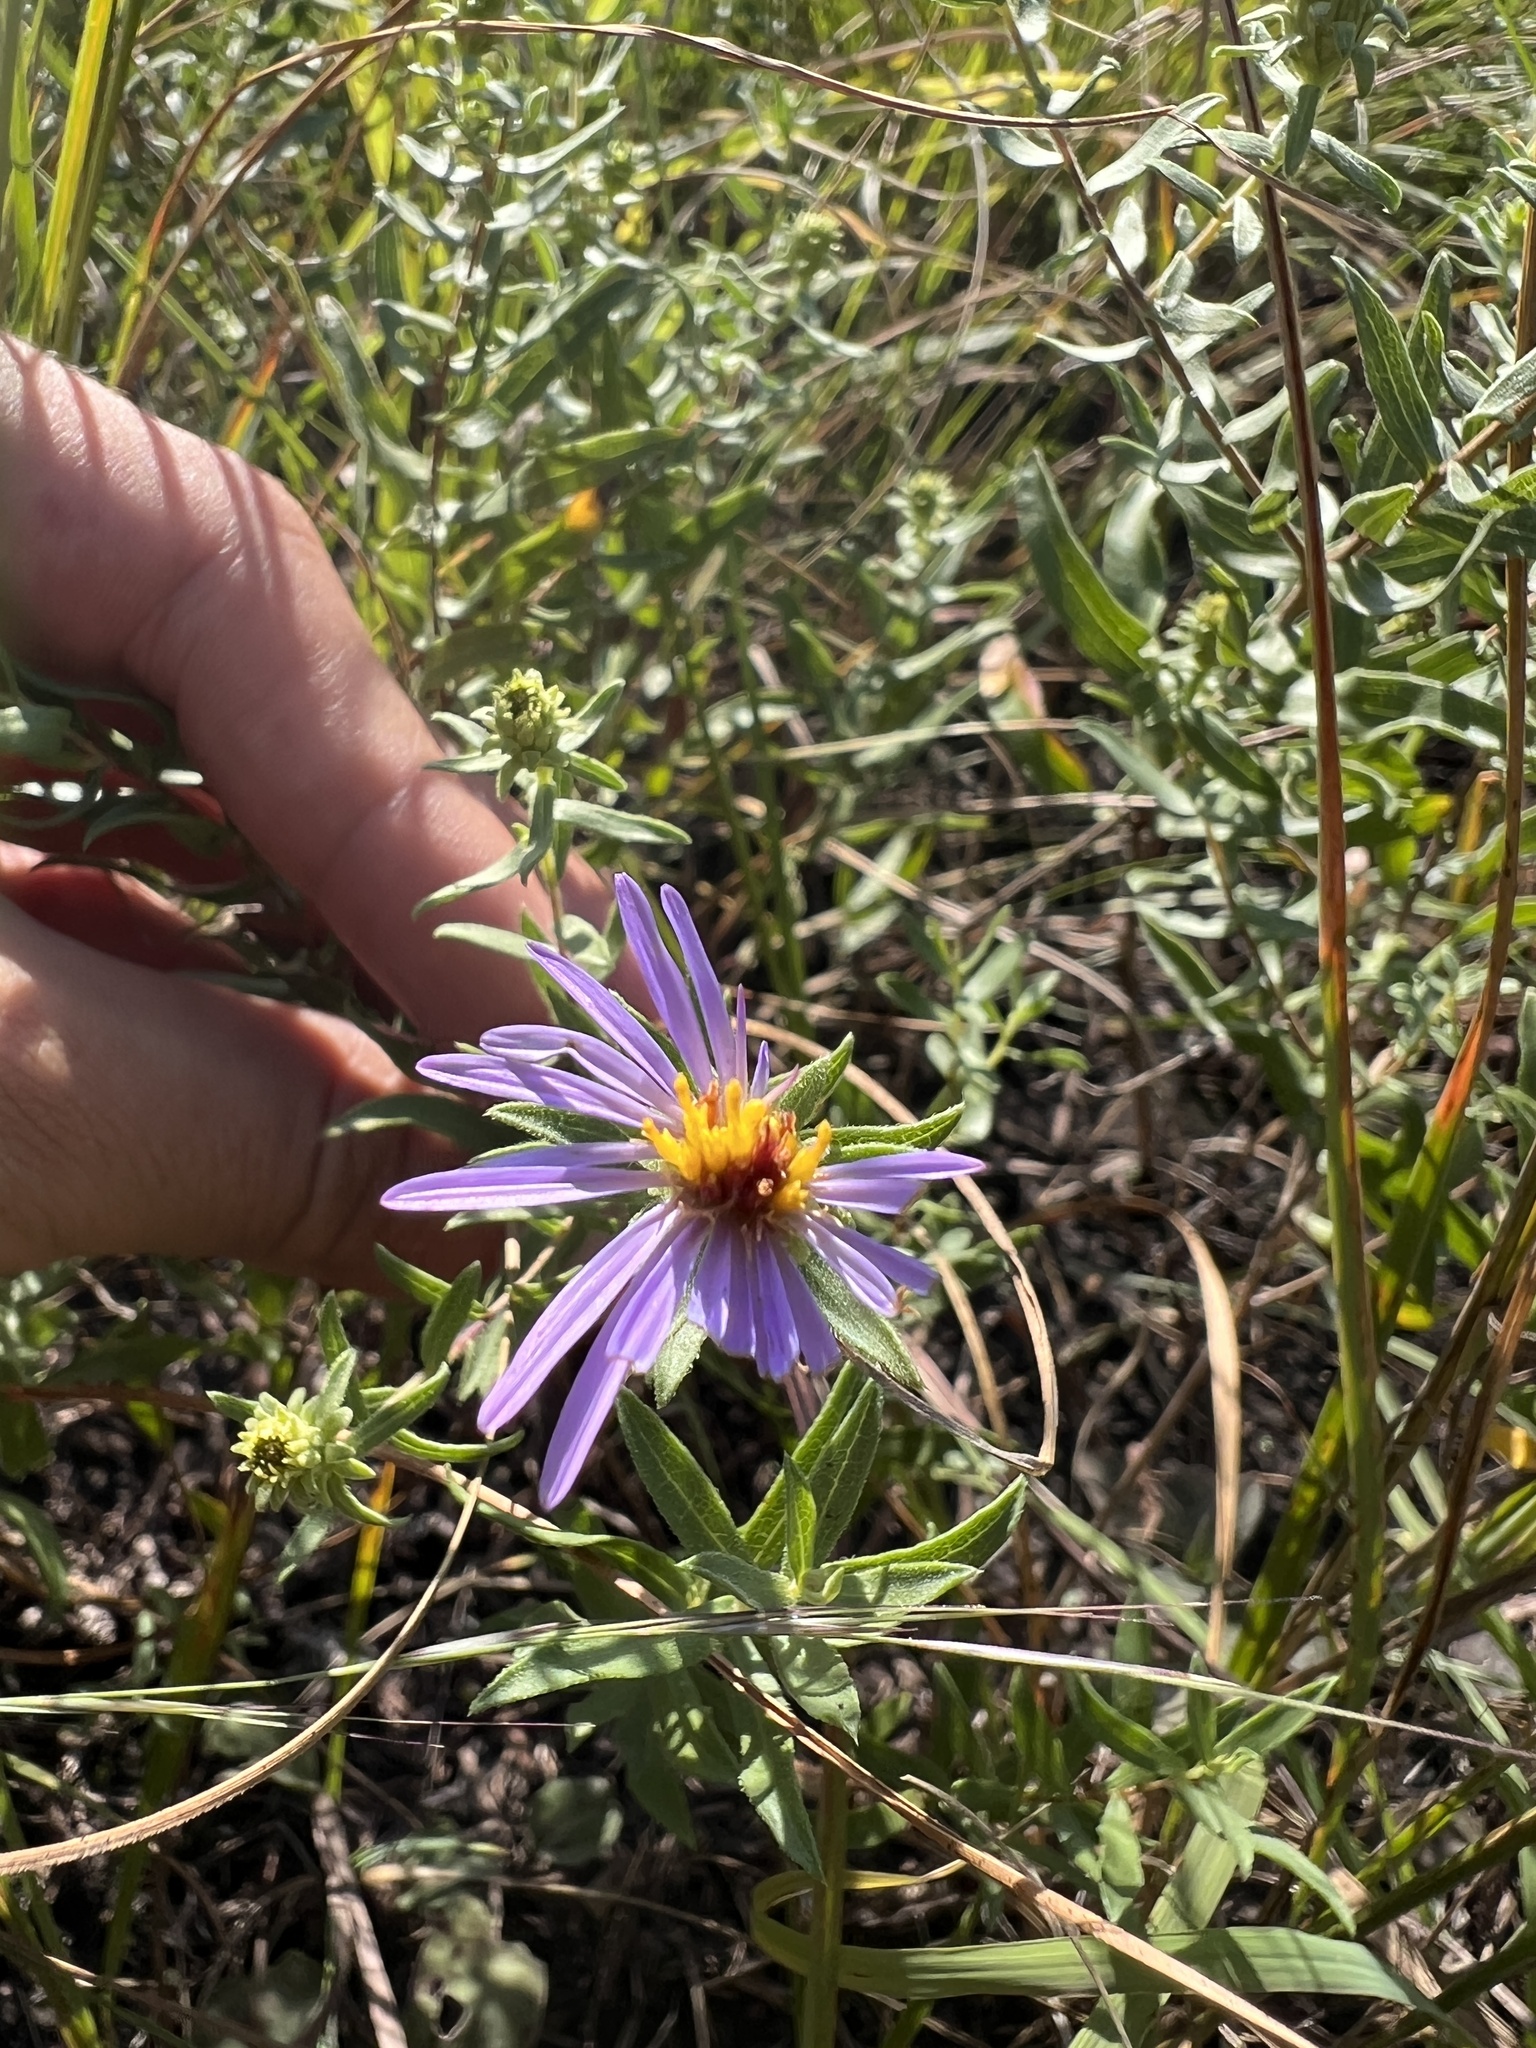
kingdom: Plantae
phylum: Tracheophyta
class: Magnoliopsida
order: Asterales
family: Asteraceae
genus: Symphyotrichum
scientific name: Symphyotrichum oblongifolium
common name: Aromatic aster
